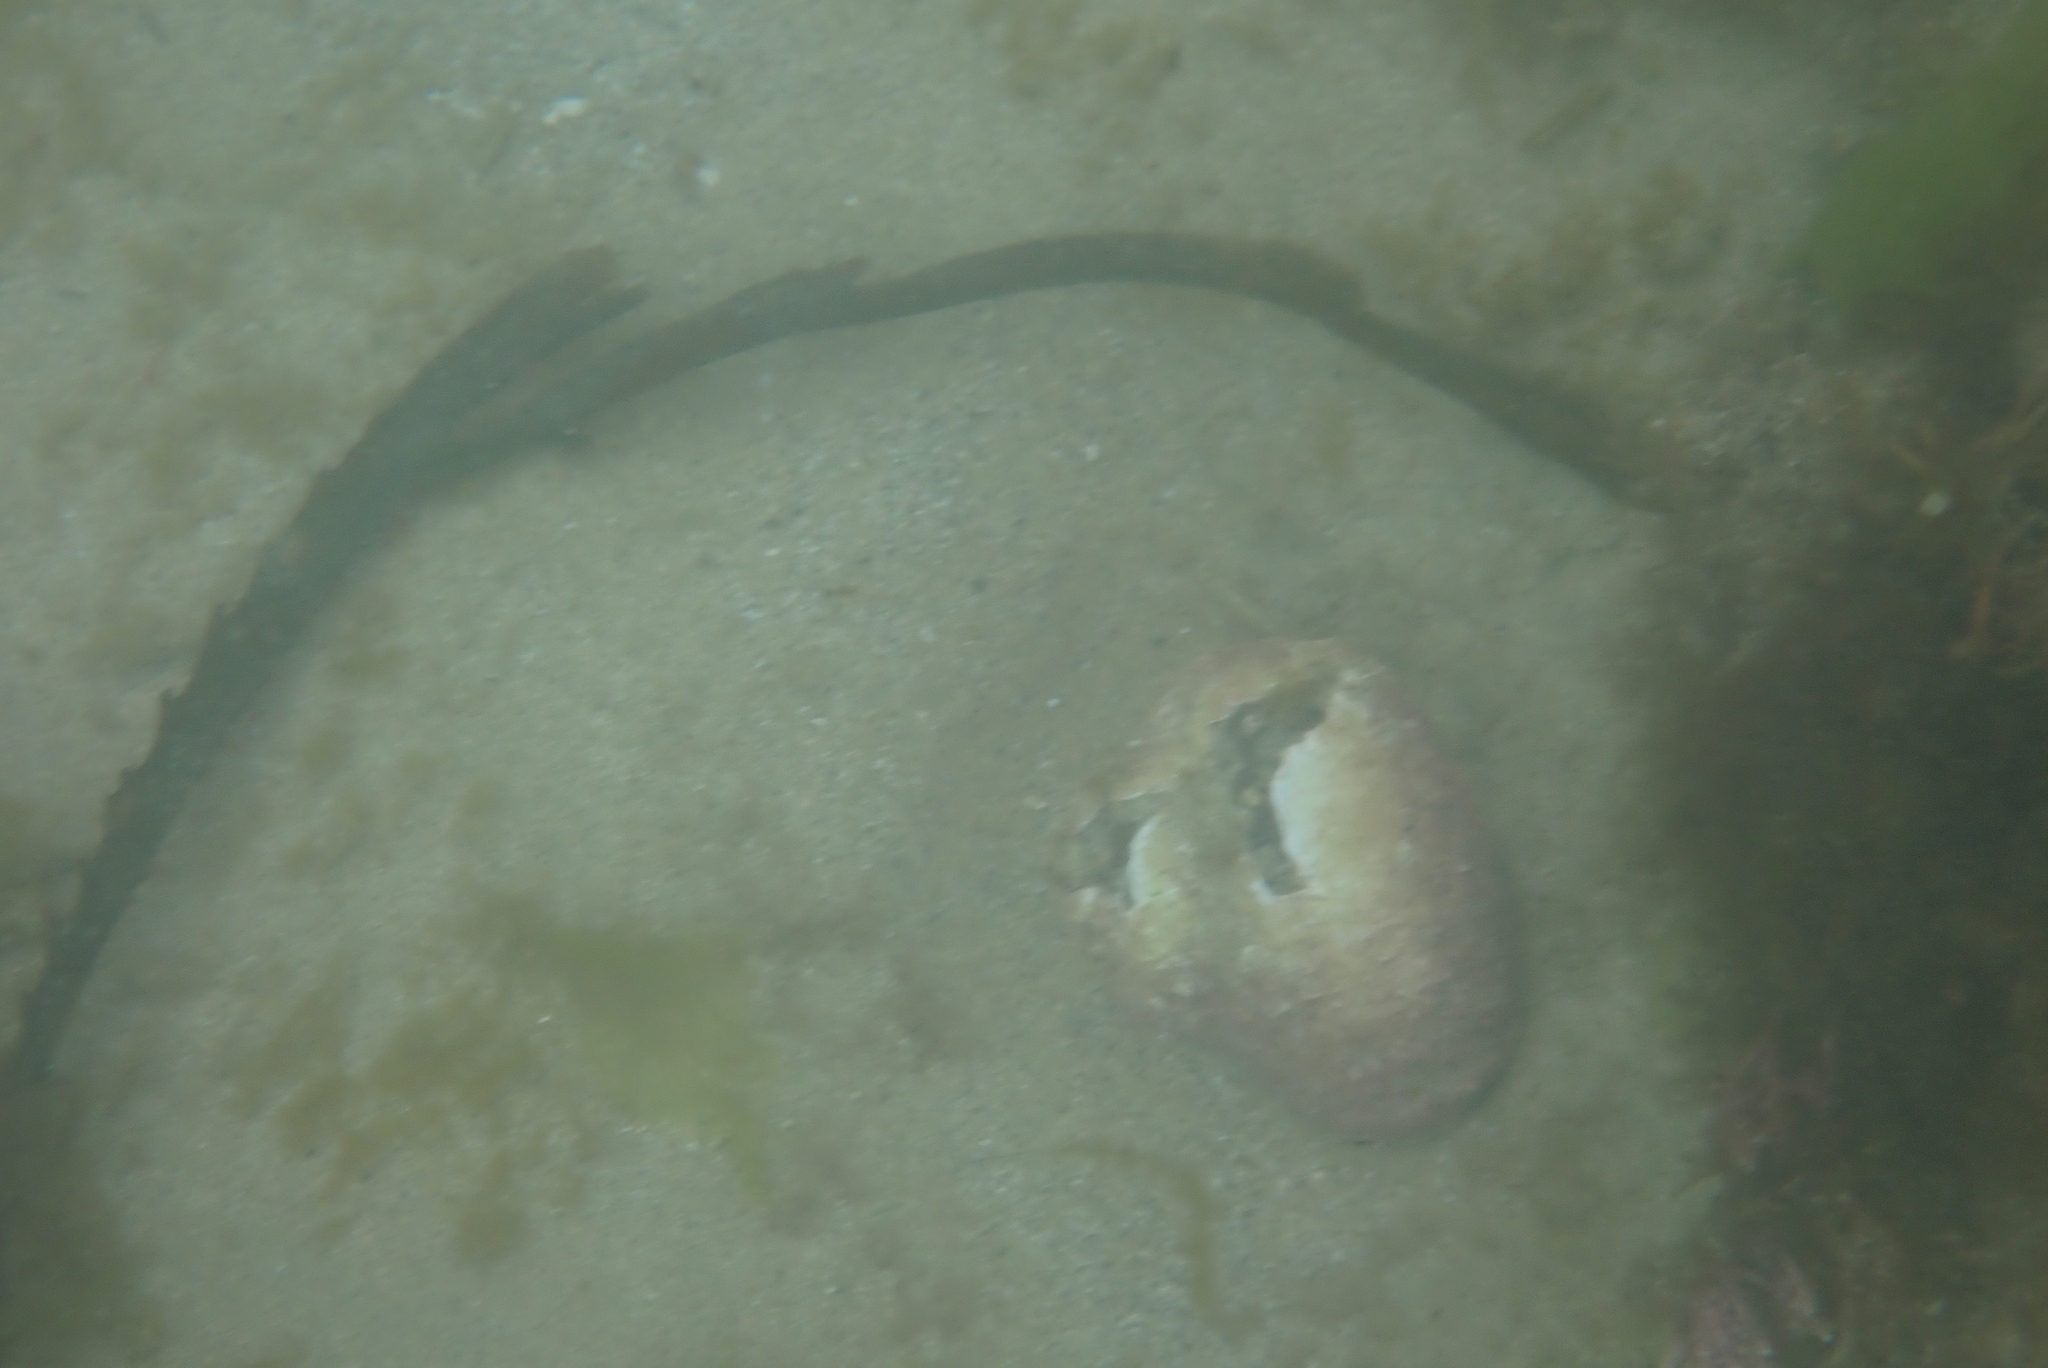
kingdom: Animalia
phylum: Mollusca
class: Gastropoda
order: Trochida
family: Turbinidae
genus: Lunella
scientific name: Lunella smaragda
